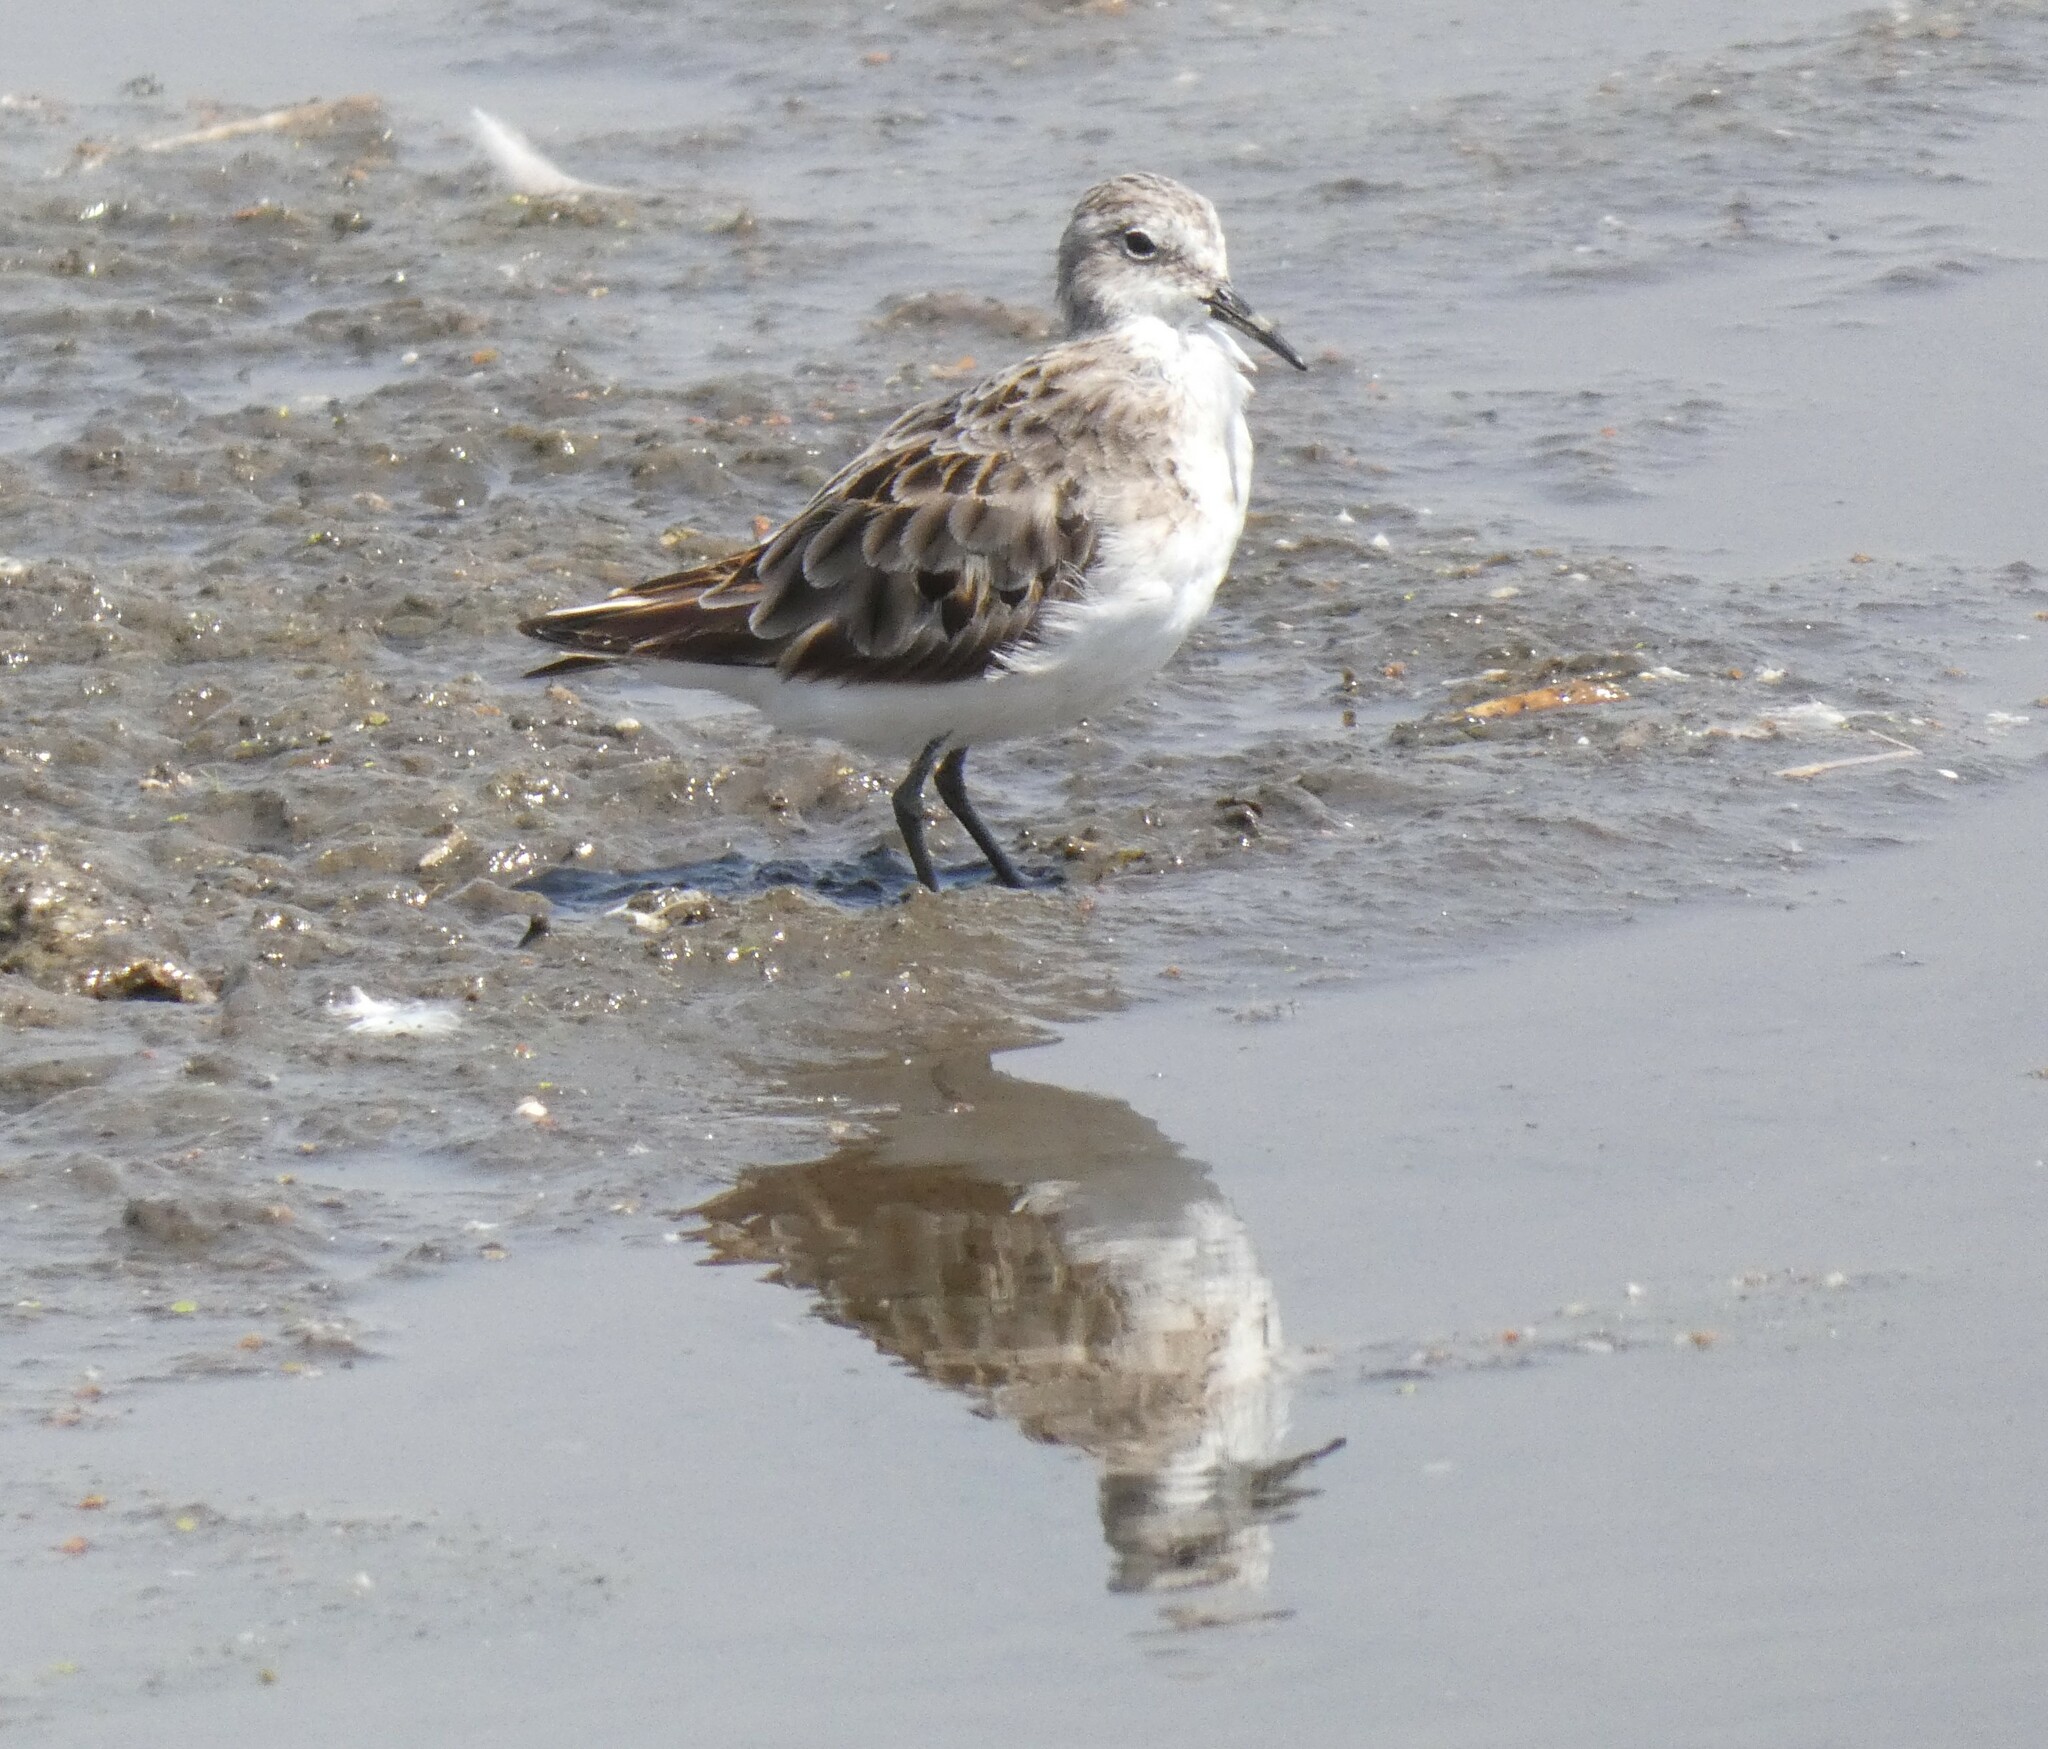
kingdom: Animalia
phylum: Chordata
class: Aves
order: Charadriiformes
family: Scolopacidae
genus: Calidris
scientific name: Calidris minuta
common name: Little stint
